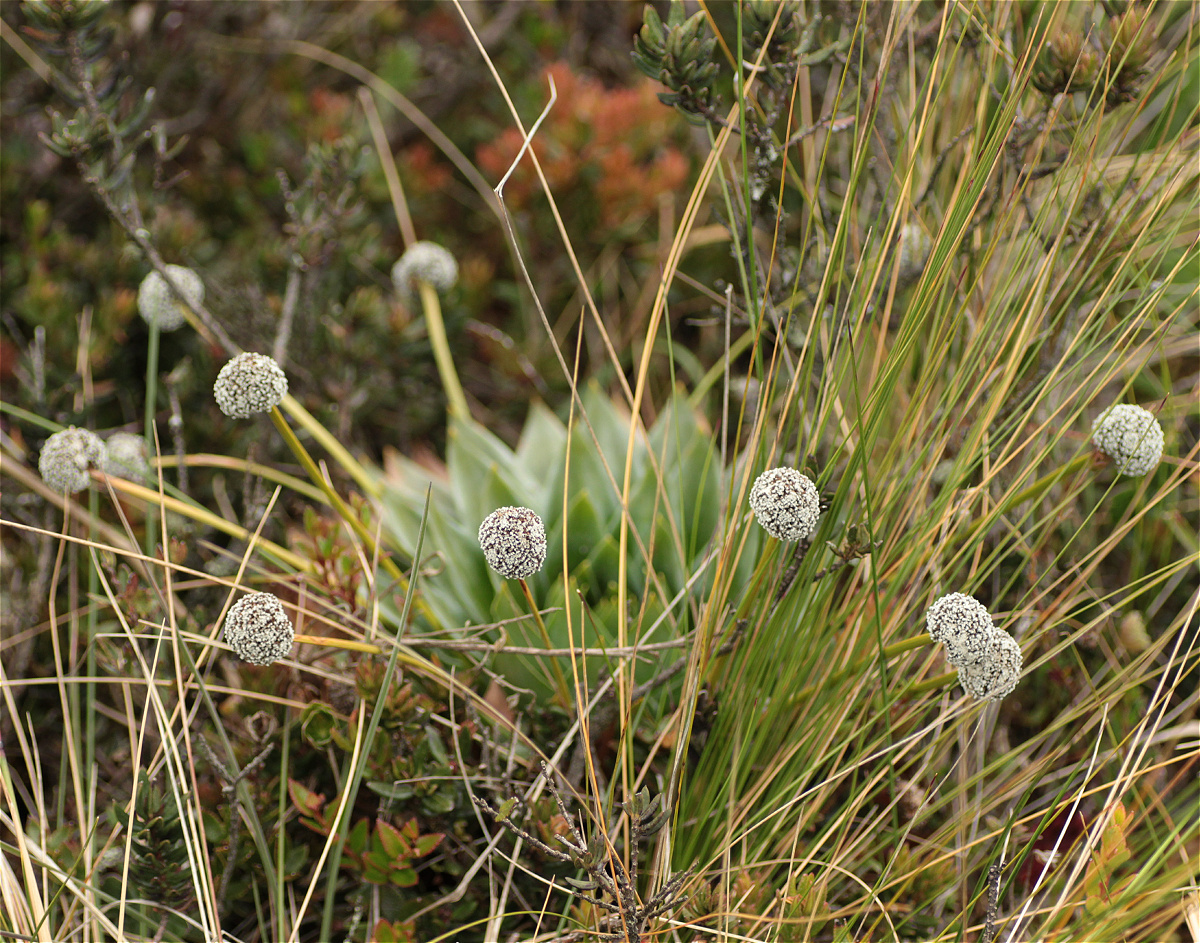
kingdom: Plantae
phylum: Tracheophyta
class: Liliopsida
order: Poales
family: Eriocaulaceae
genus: Paepalanthus
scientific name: Paepalanthus alpinus
